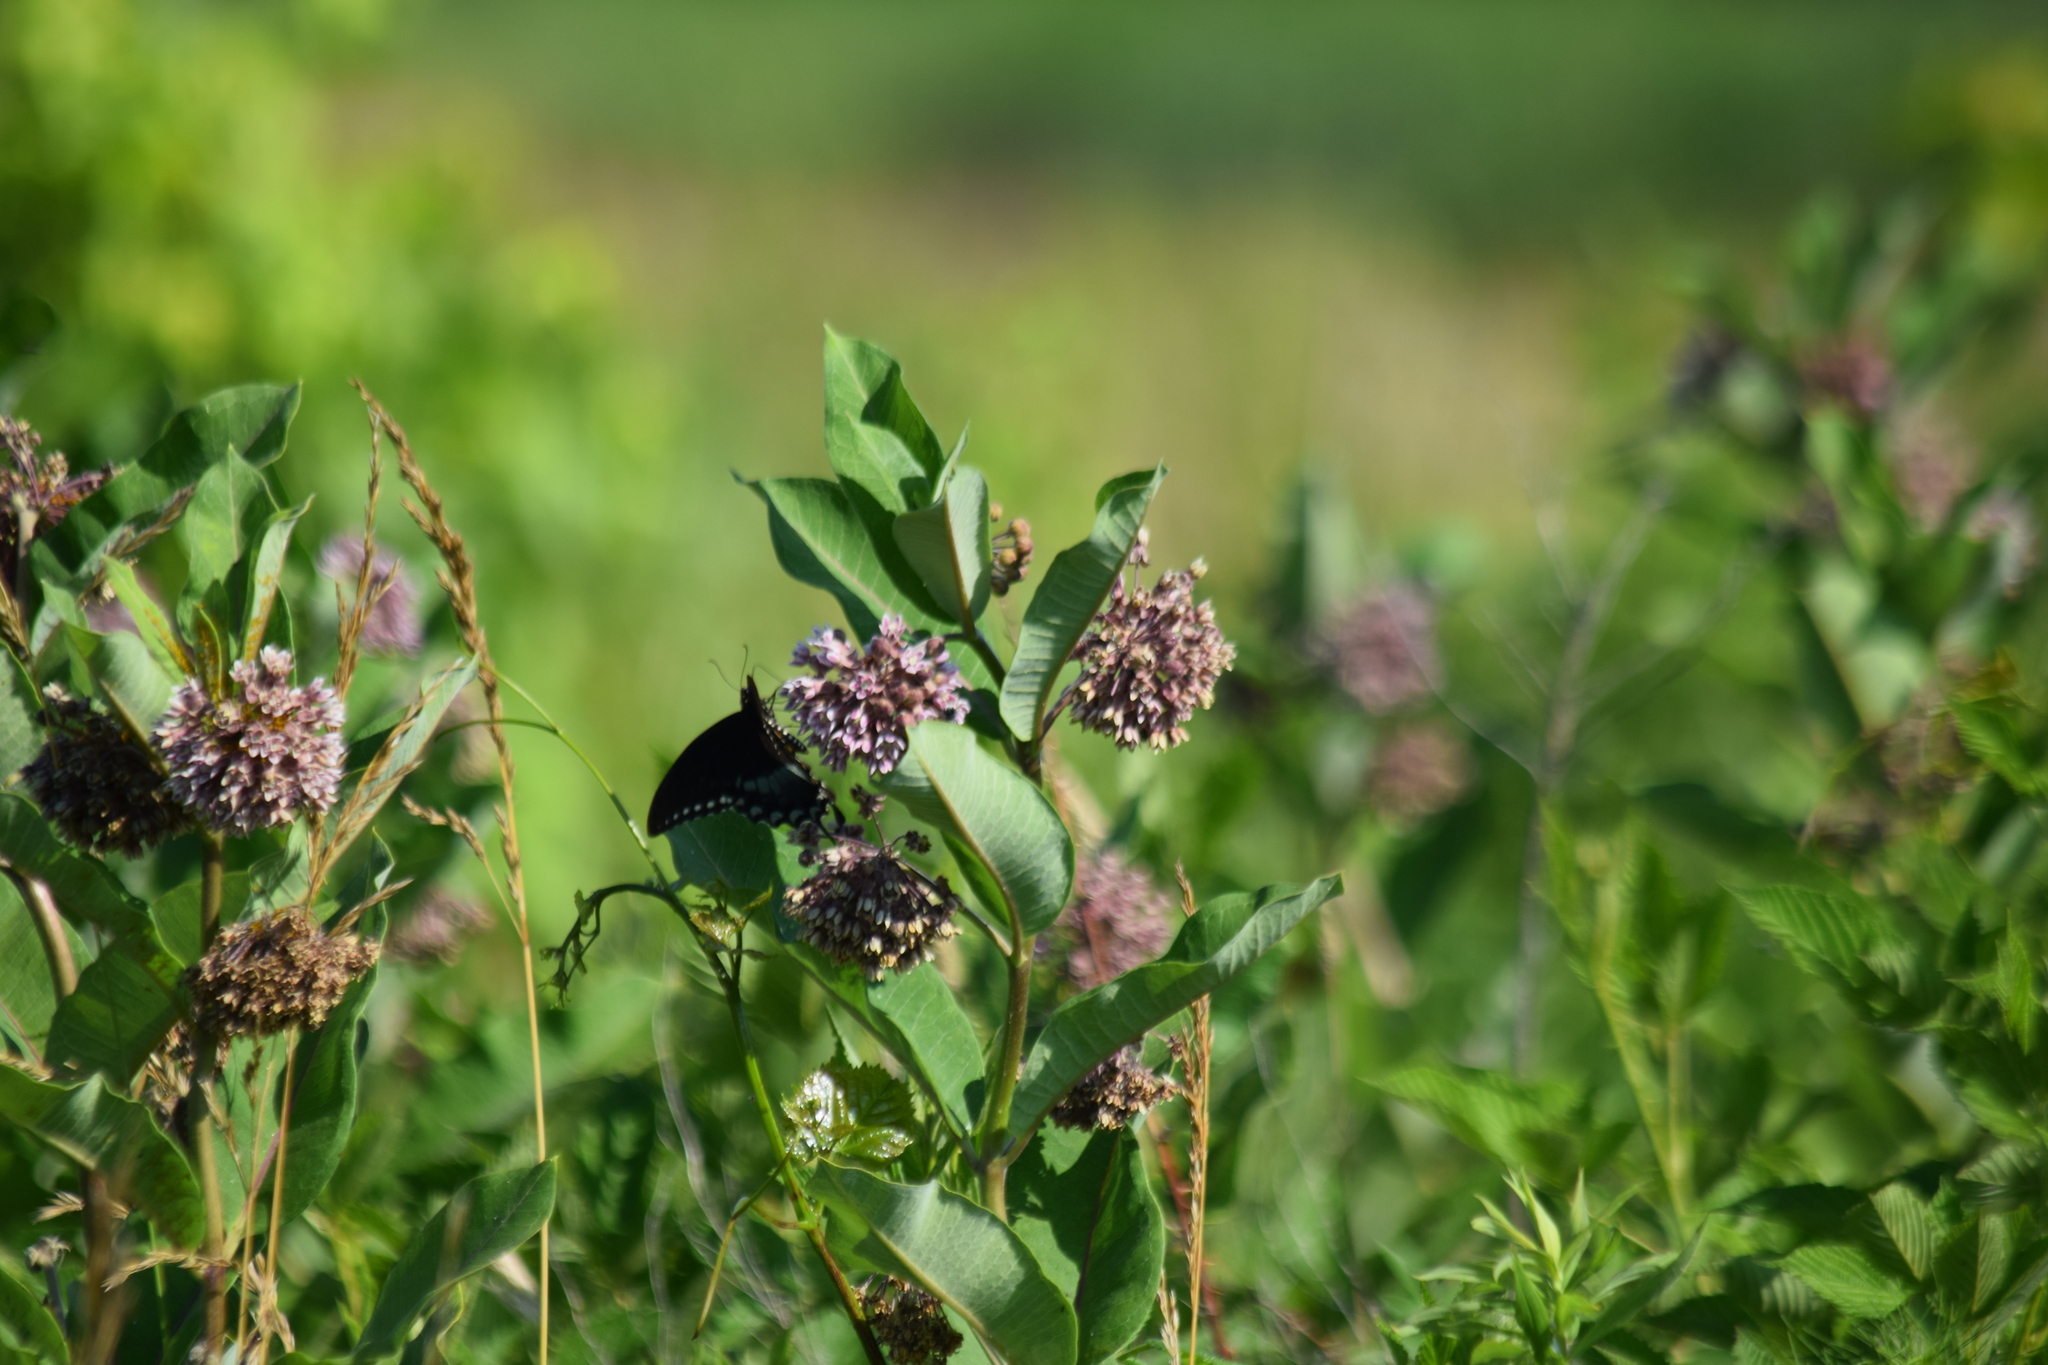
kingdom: Animalia
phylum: Arthropoda
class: Insecta
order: Lepidoptera
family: Papilionidae
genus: Papilio
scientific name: Papilio troilus
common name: Spicebush swallowtail
